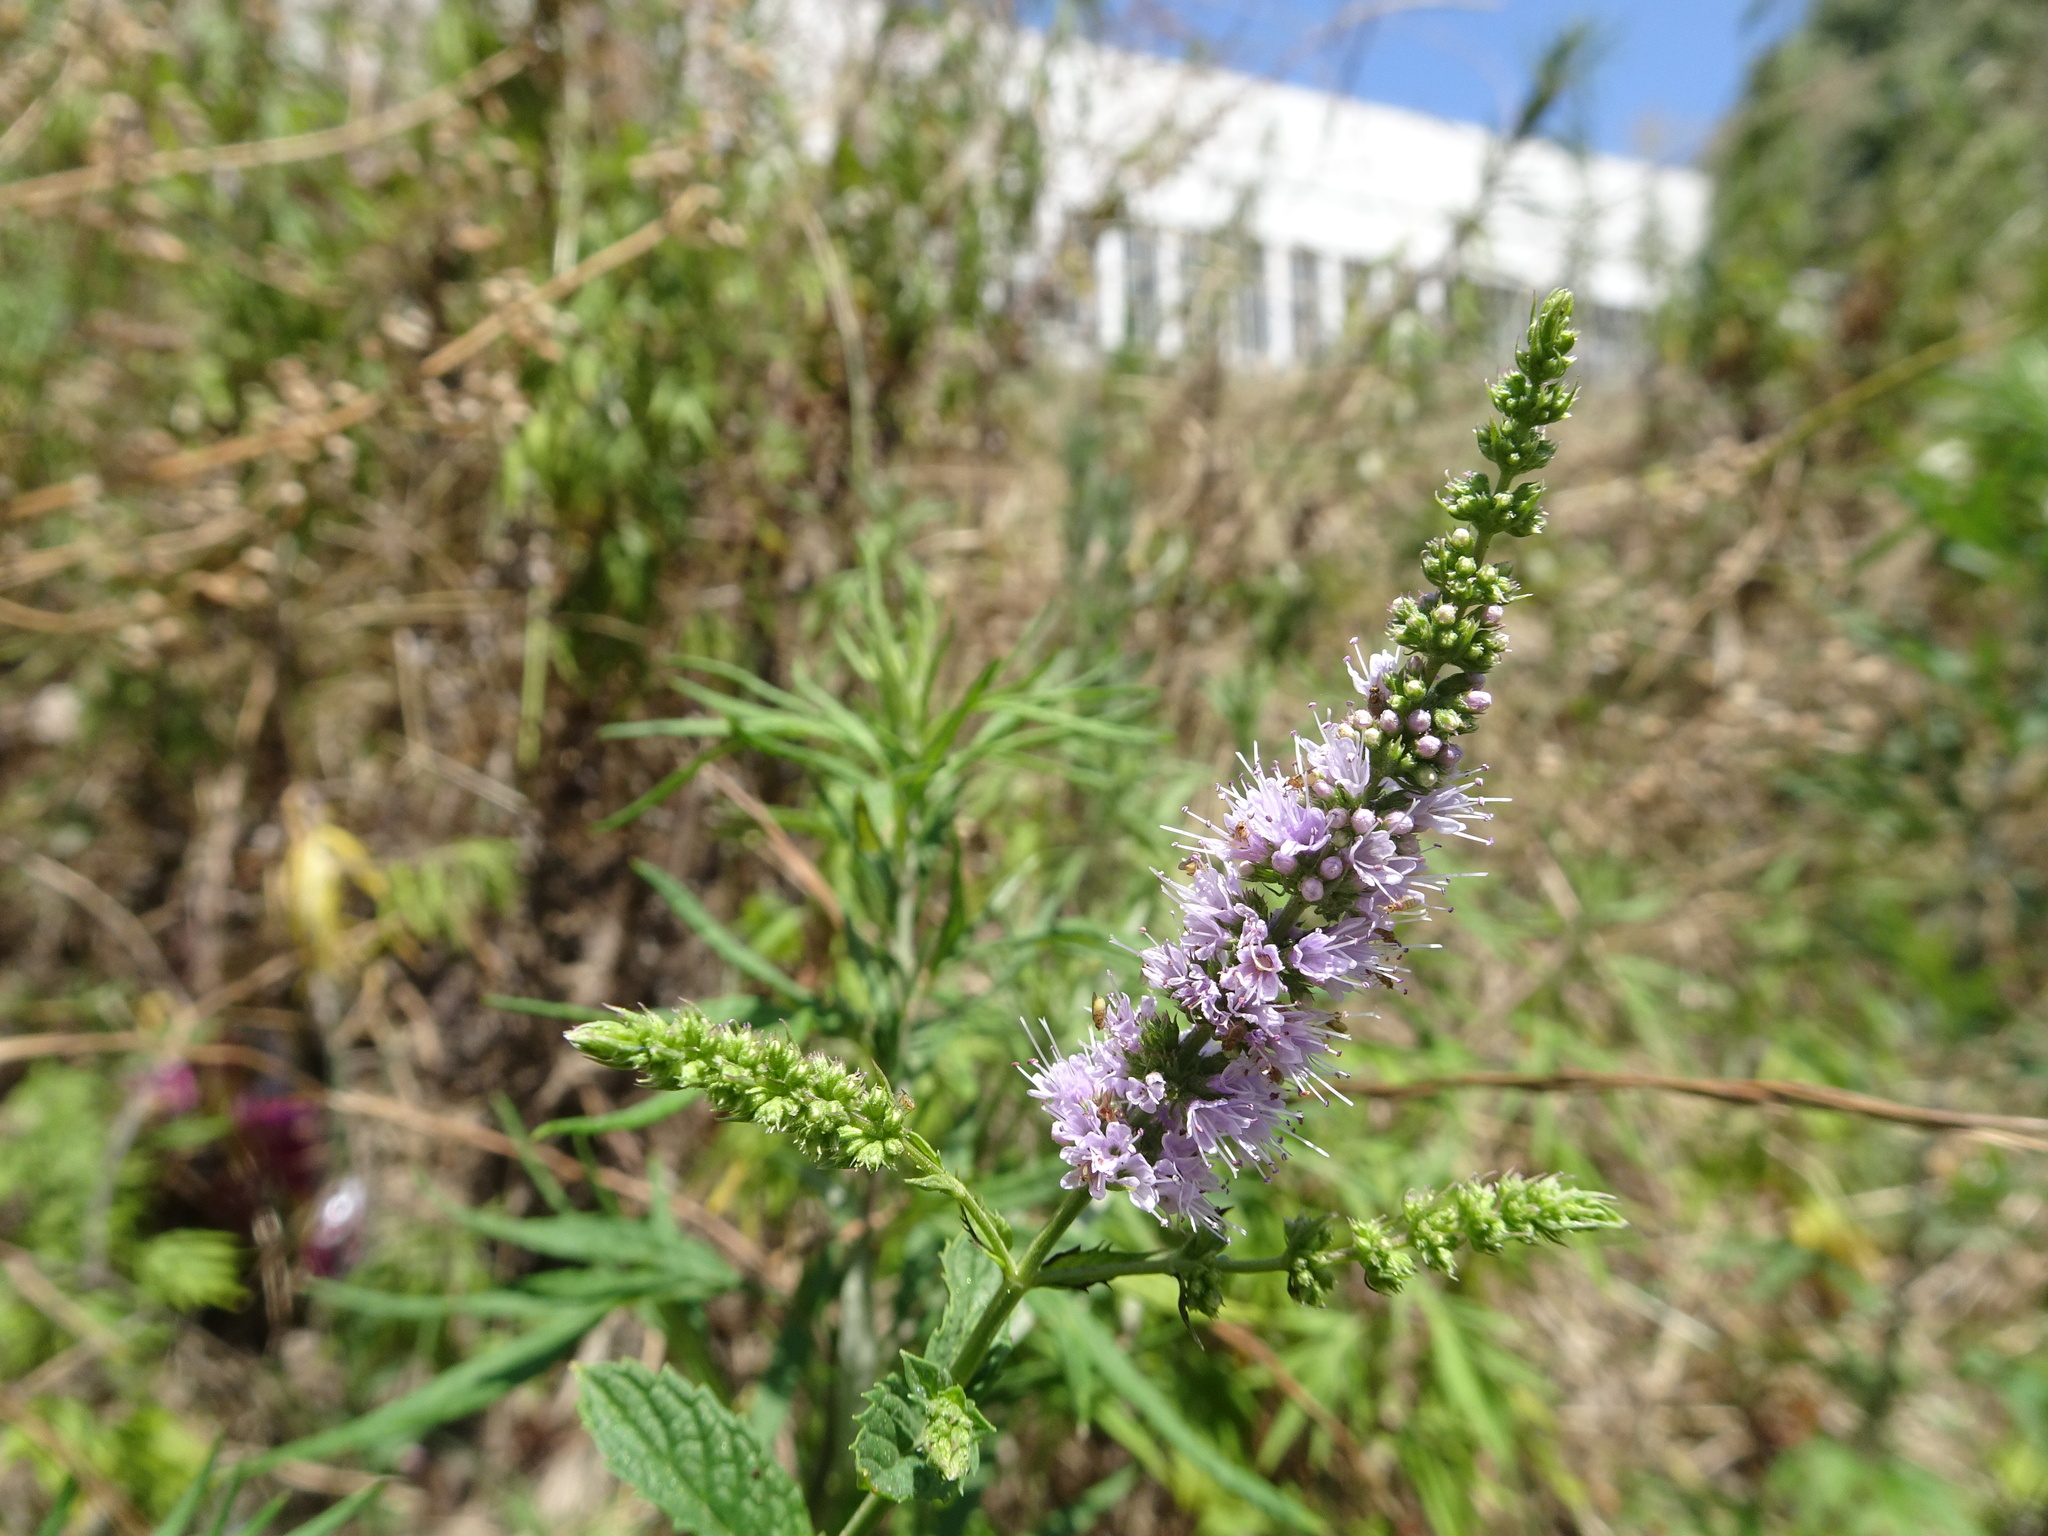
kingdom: Plantae
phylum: Tracheophyta
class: Magnoliopsida
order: Lamiales
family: Lamiaceae
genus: Mentha
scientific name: Mentha spicata
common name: Spearmint
